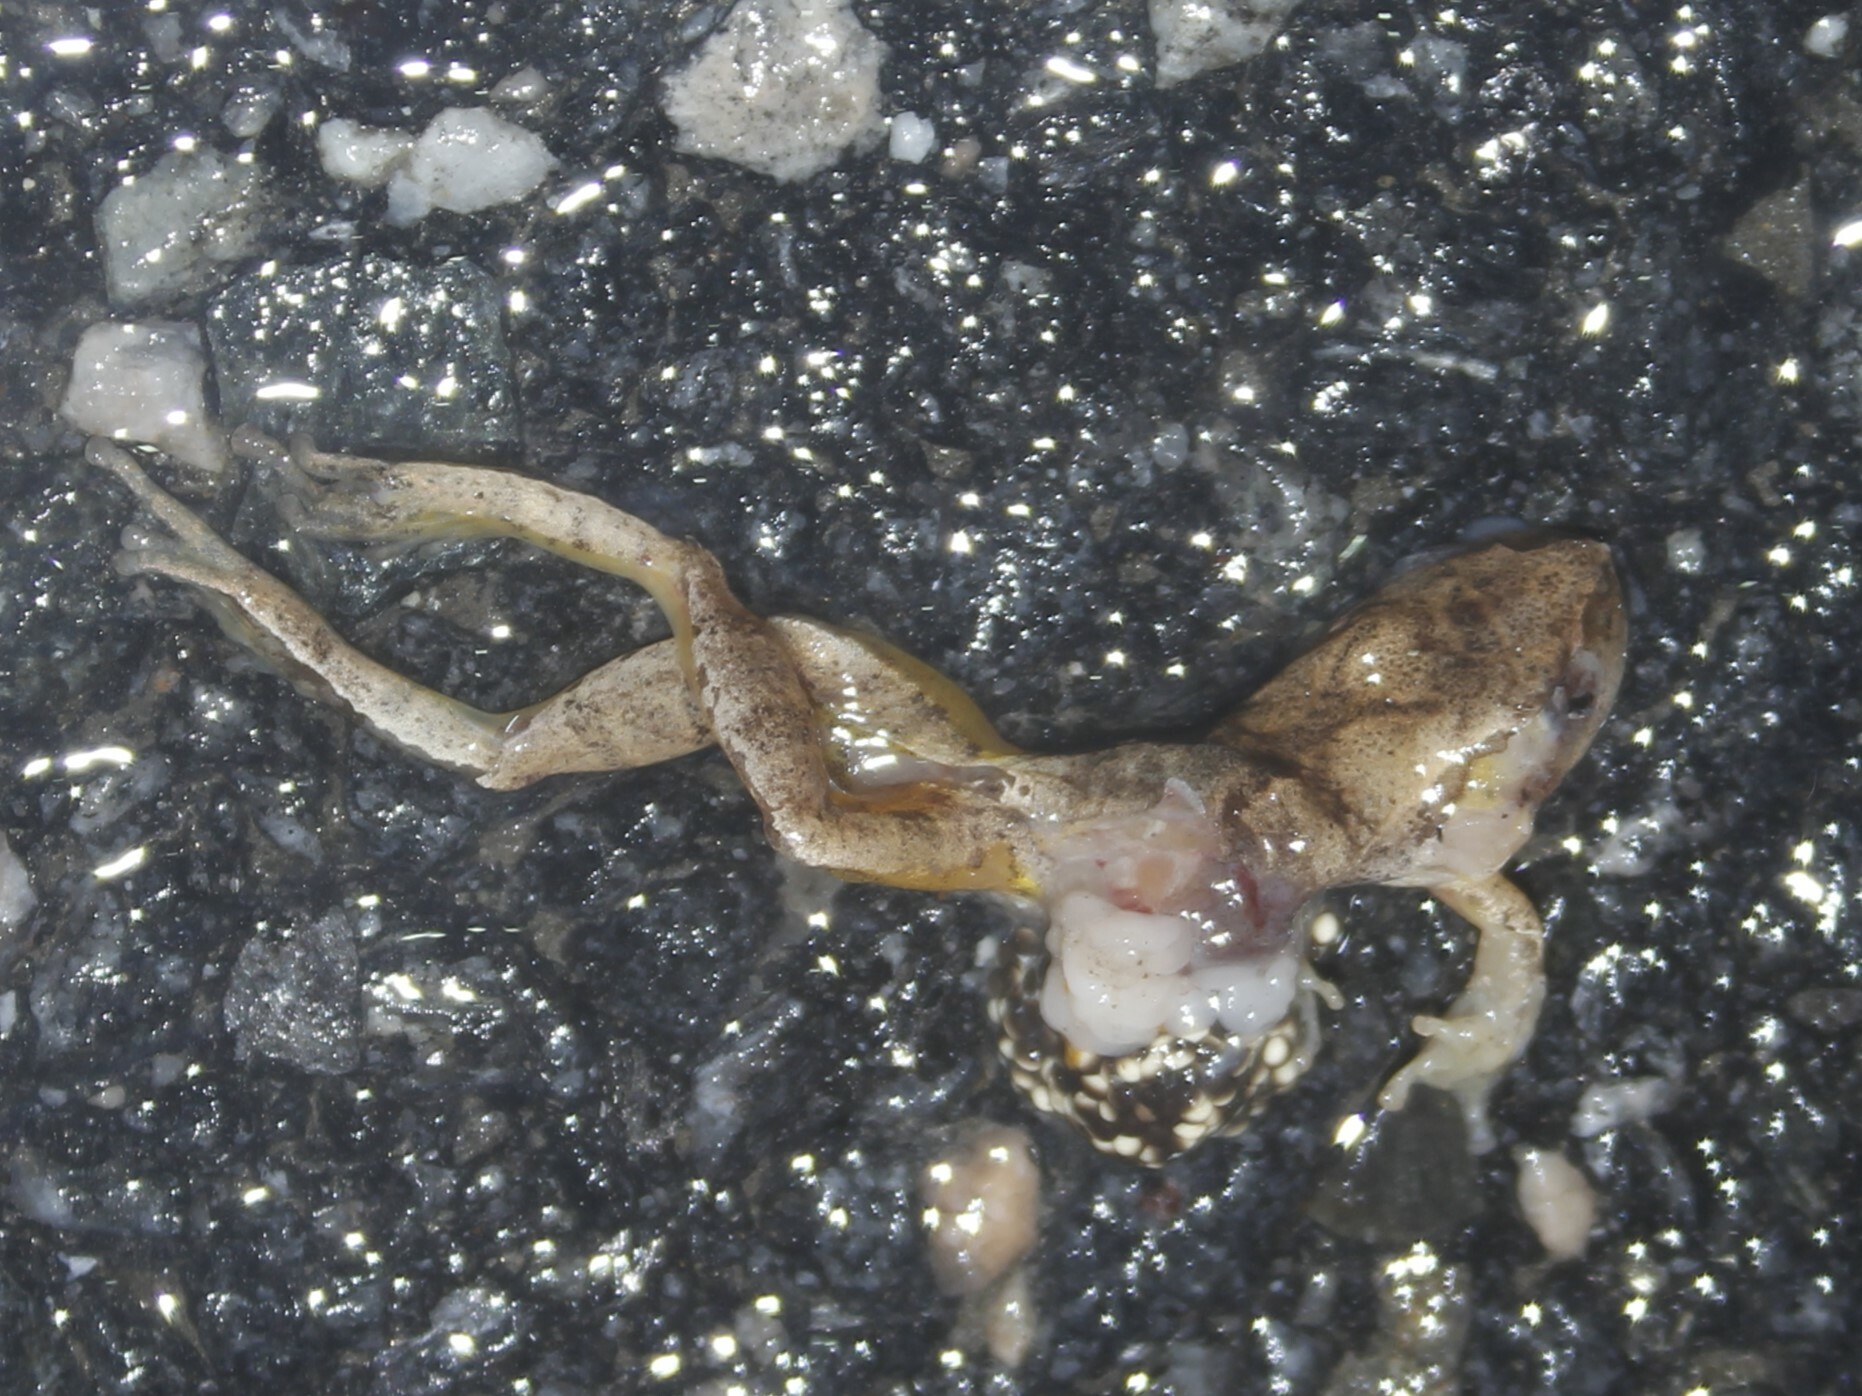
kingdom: Animalia
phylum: Chordata
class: Amphibia
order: Anura
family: Hylidae
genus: Pseudacris
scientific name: Pseudacris crucifer
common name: Spring peeper
